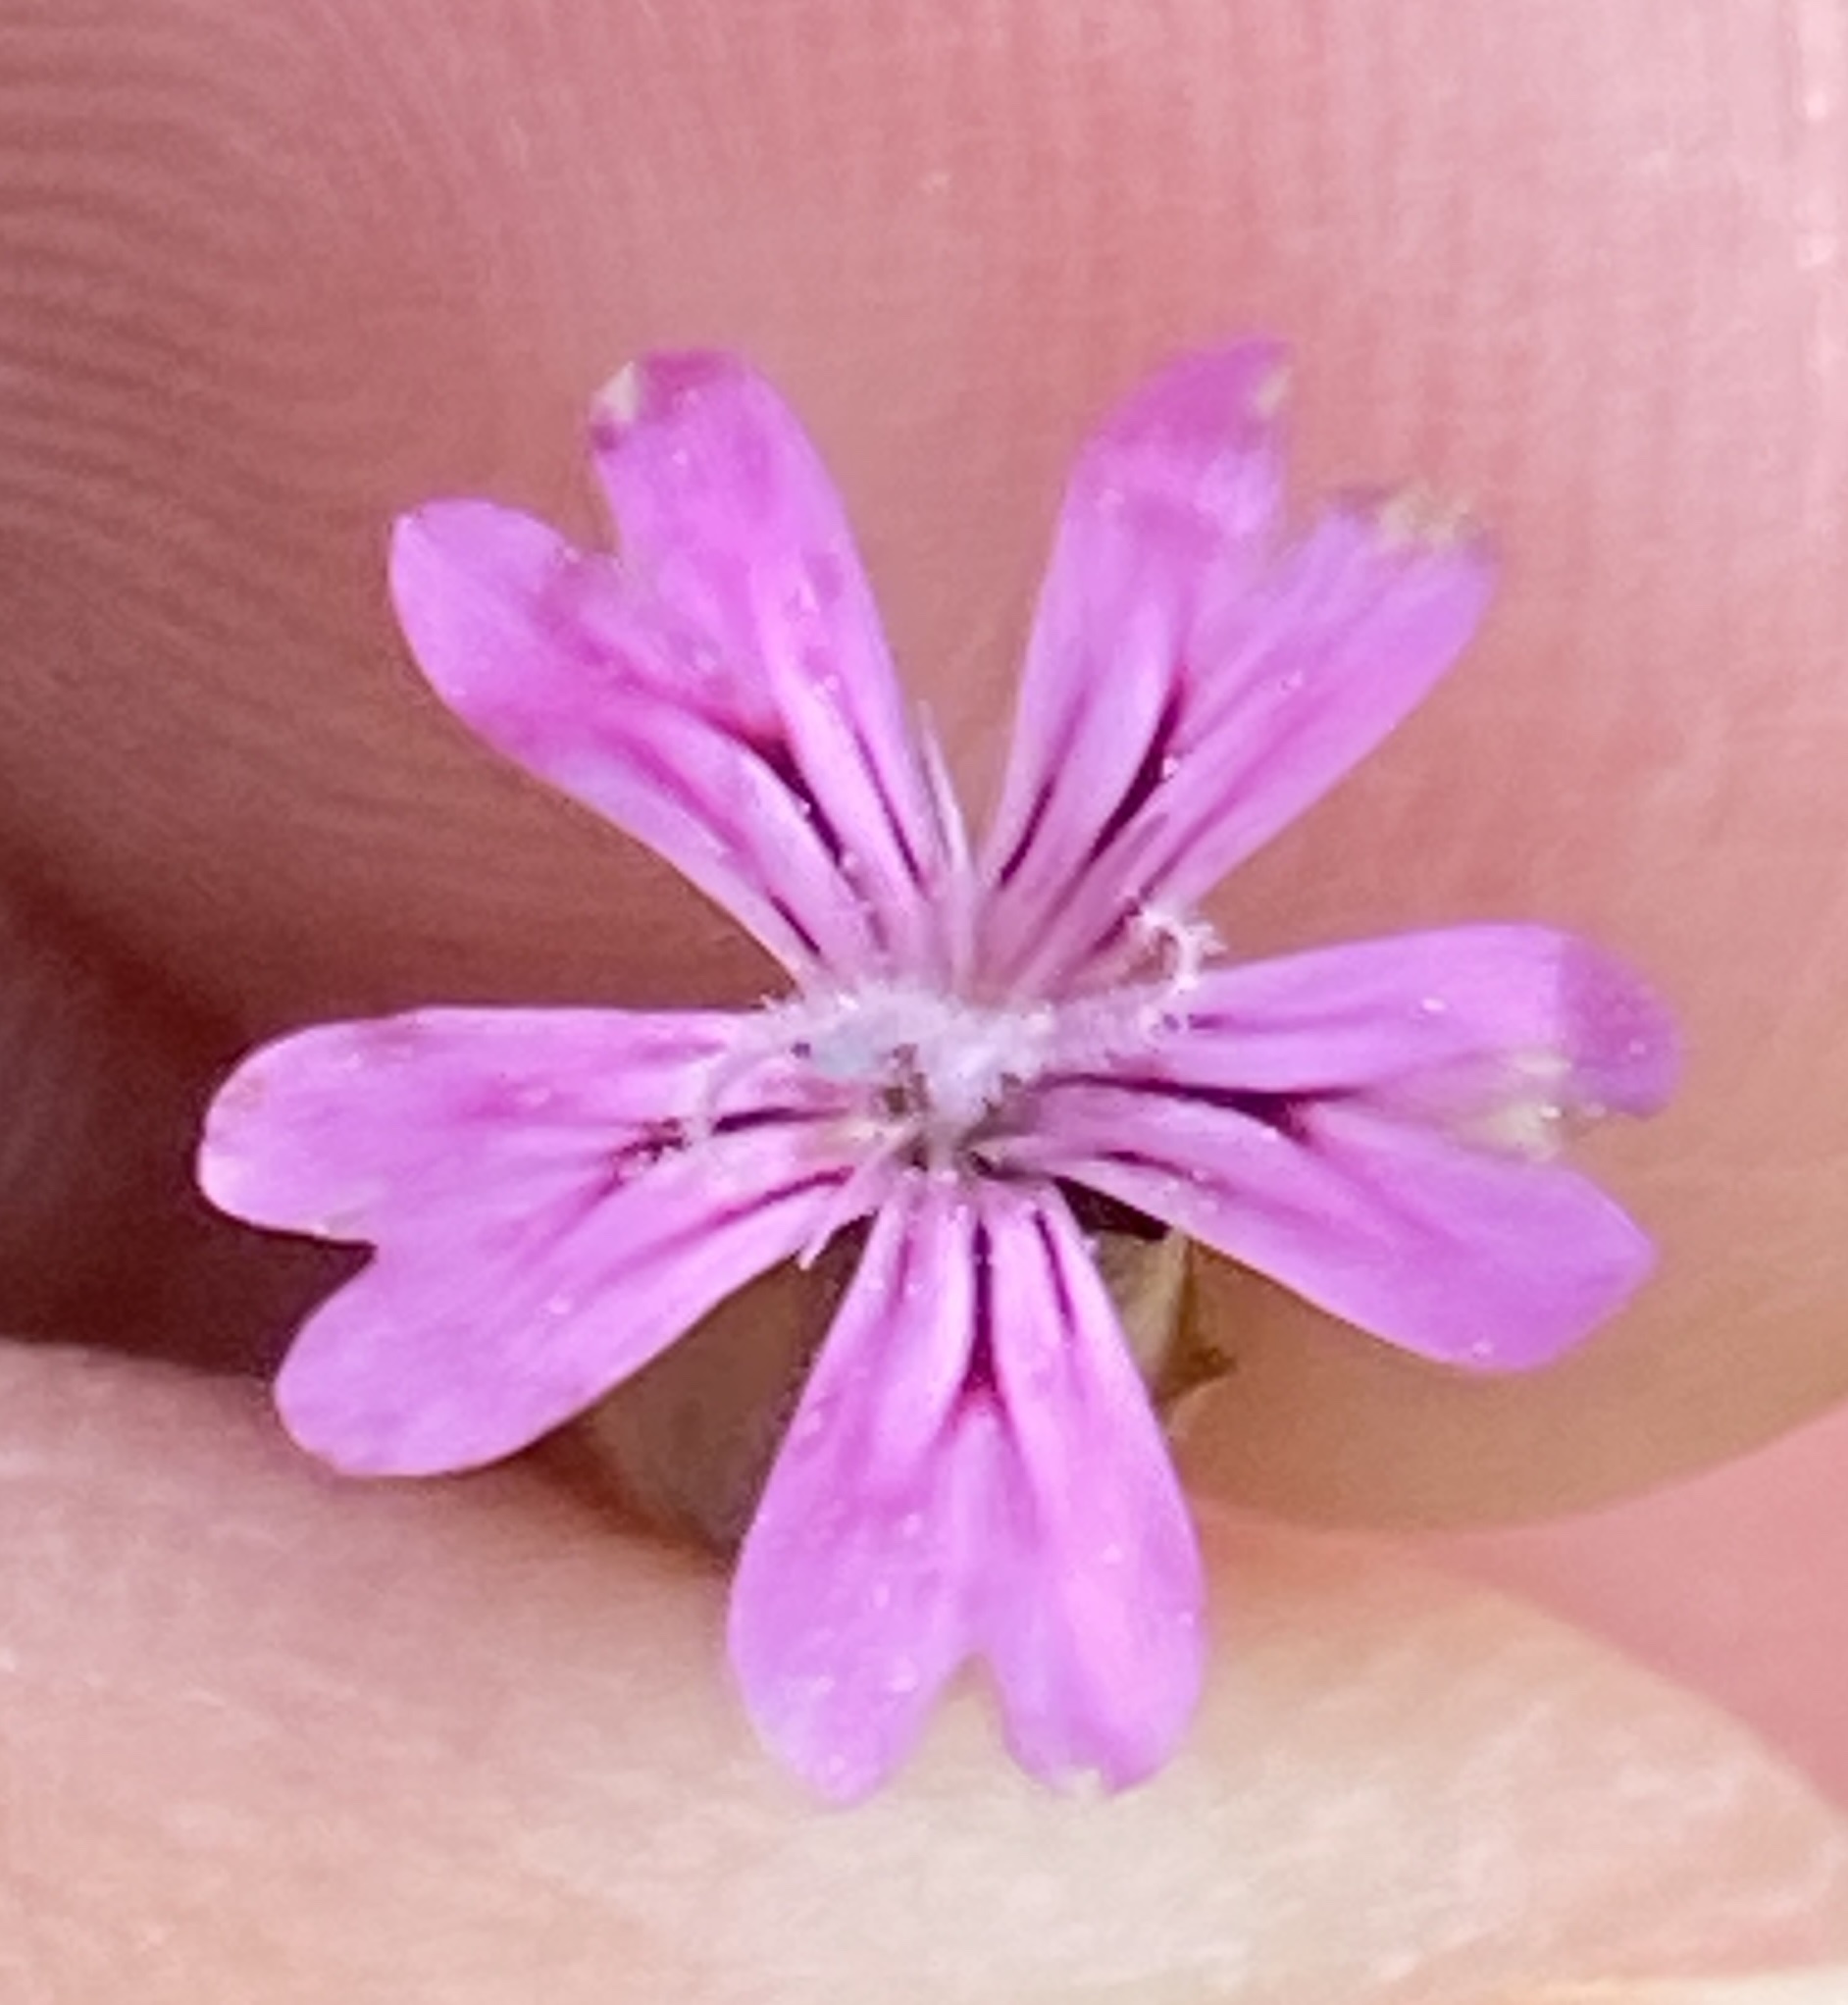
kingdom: Plantae
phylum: Tracheophyta
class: Magnoliopsida
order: Caryophyllales
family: Caryophyllaceae
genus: Petrorhagia
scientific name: Petrorhagia dubia
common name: Hairypink
